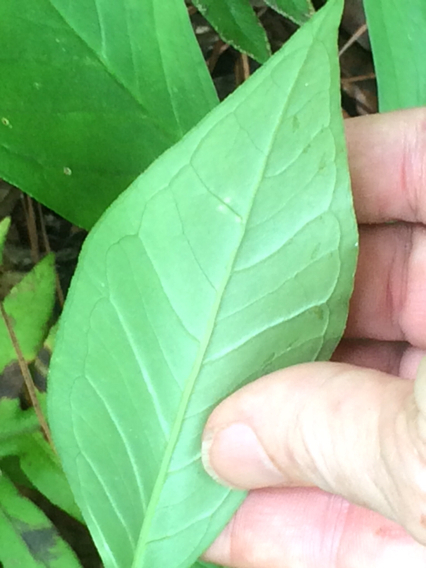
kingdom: Plantae
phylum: Tracheophyta
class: Liliopsida
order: Alismatales
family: Araceae
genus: Arisaema
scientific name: Arisaema triphyllum
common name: Jack-in-the-pulpit
